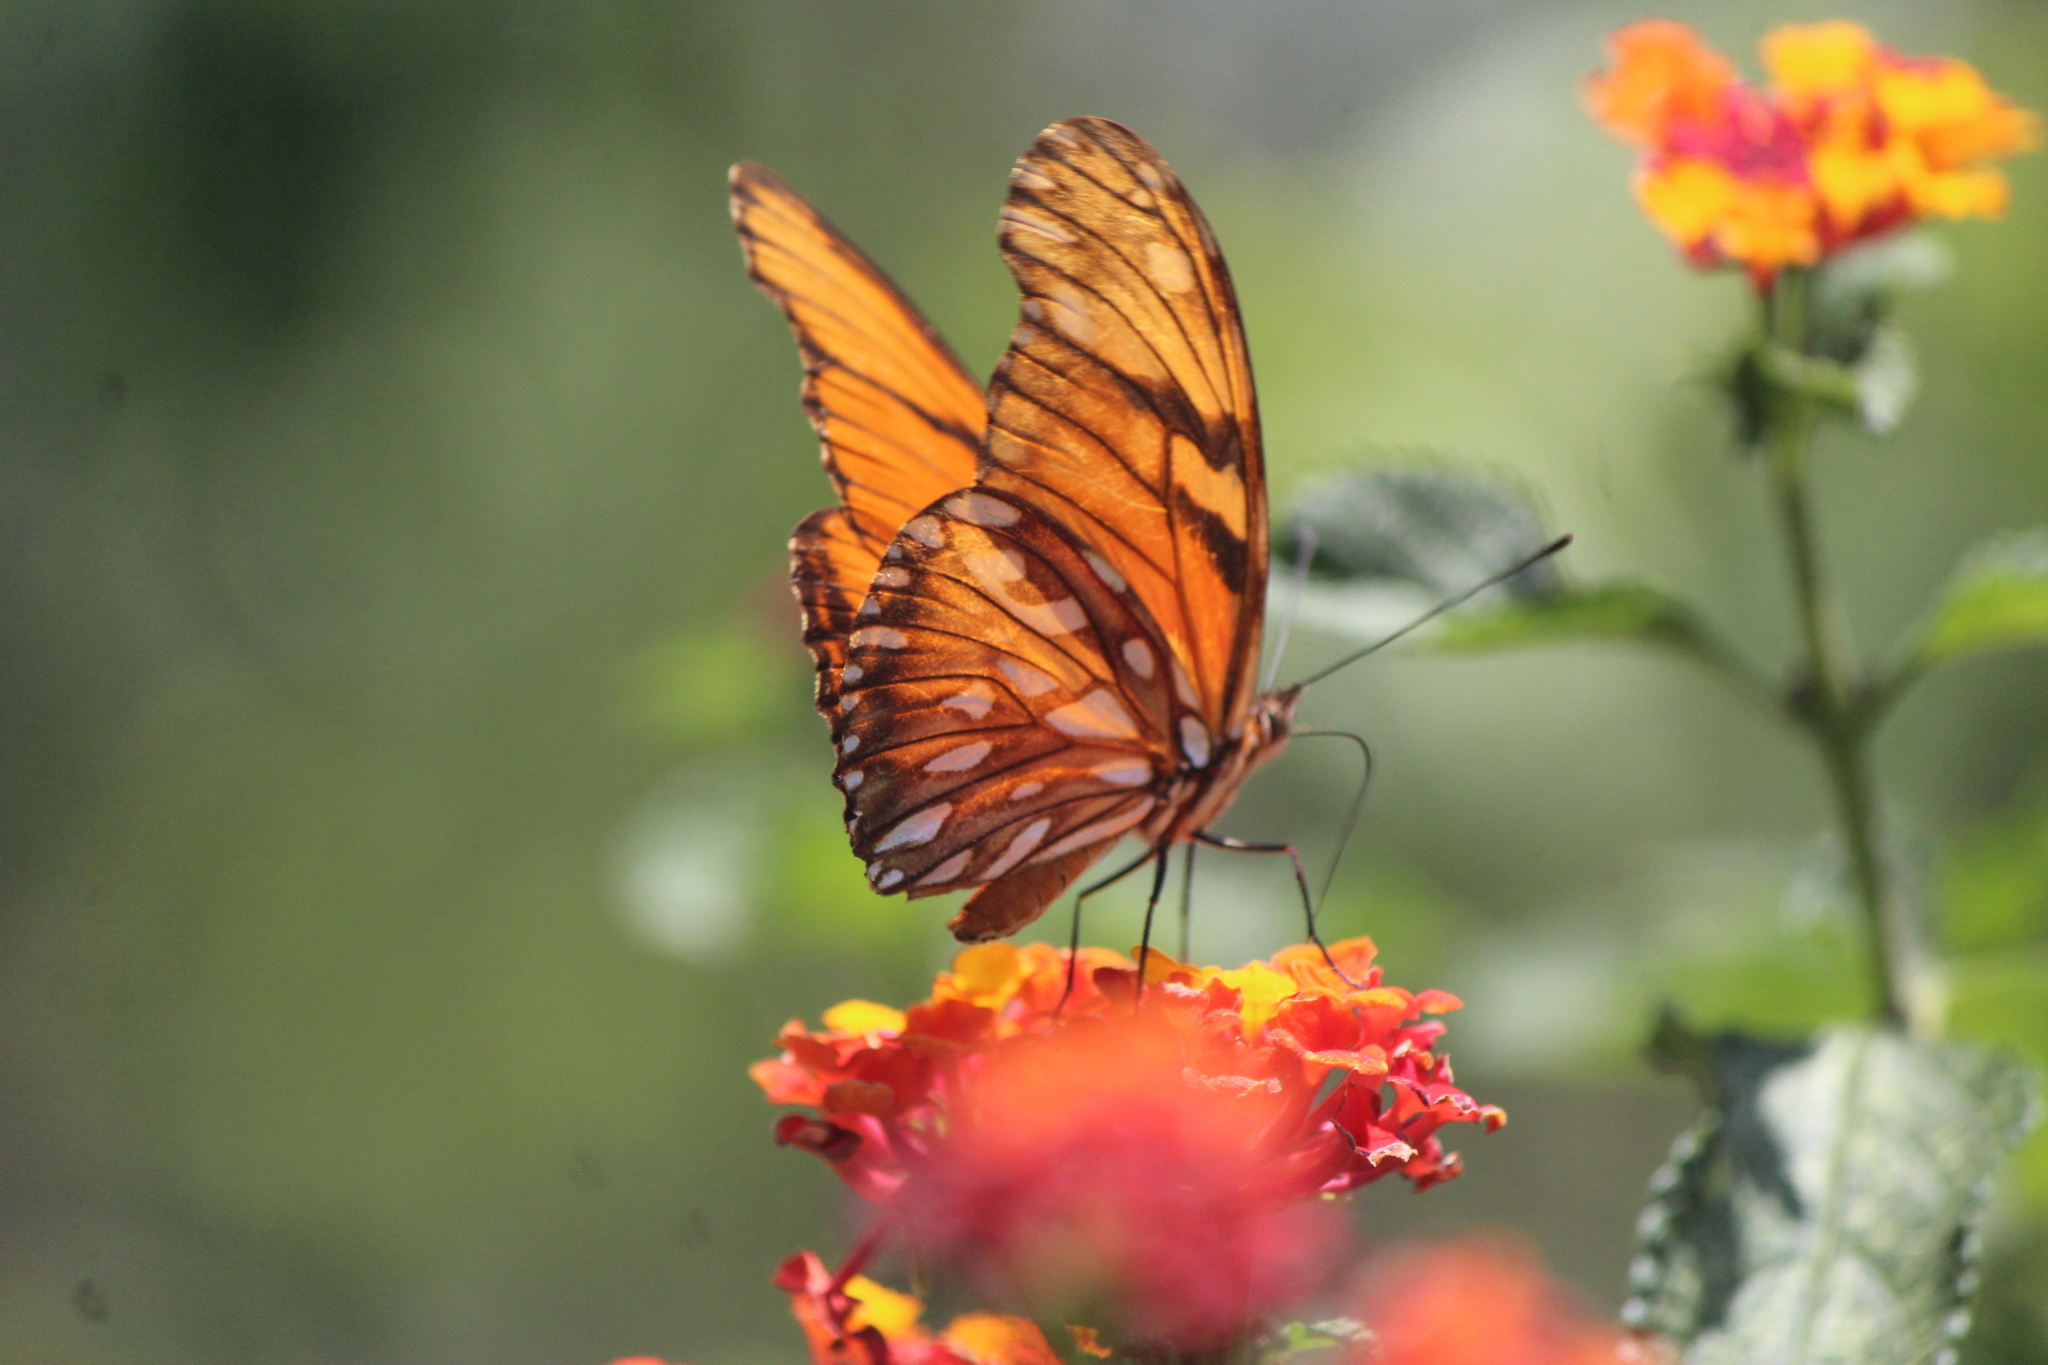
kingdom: Animalia
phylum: Arthropoda
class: Insecta
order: Lepidoptera
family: Nymphalidae
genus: Dione
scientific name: Dione juno
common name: Juno silverspot
